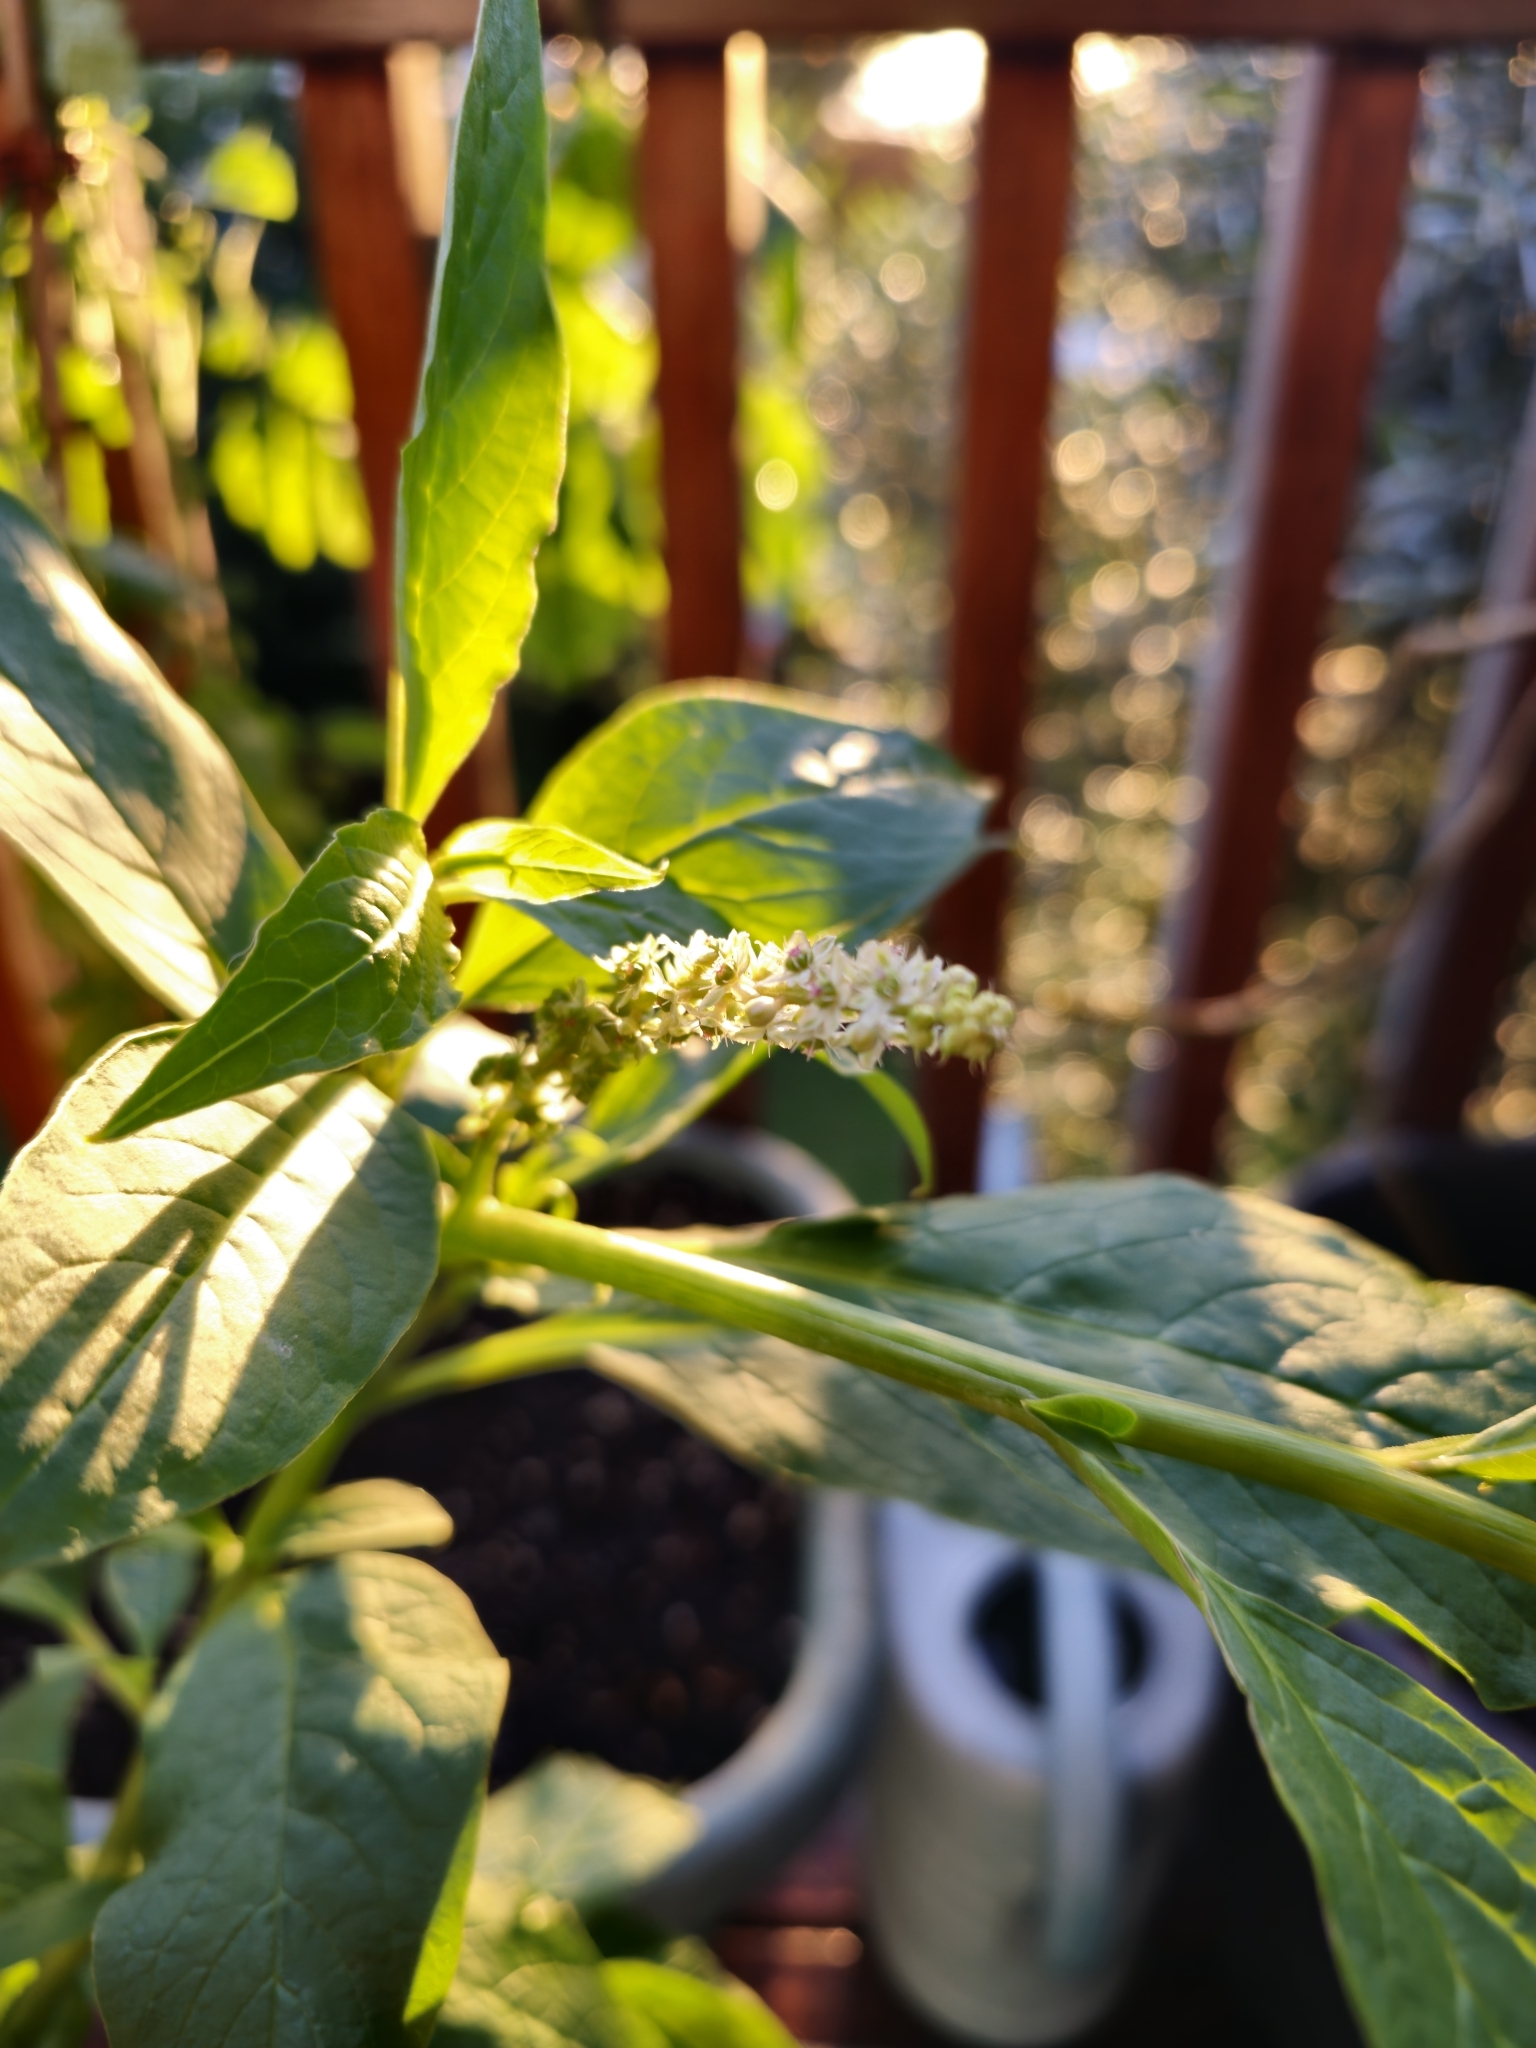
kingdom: Plantae
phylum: Tracheophyta
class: Magnoliopsida
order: Caryophyllales
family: Phytolaccaceae
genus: Phytolacca
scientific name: Phytolacca icosandra
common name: Button pokeweed
